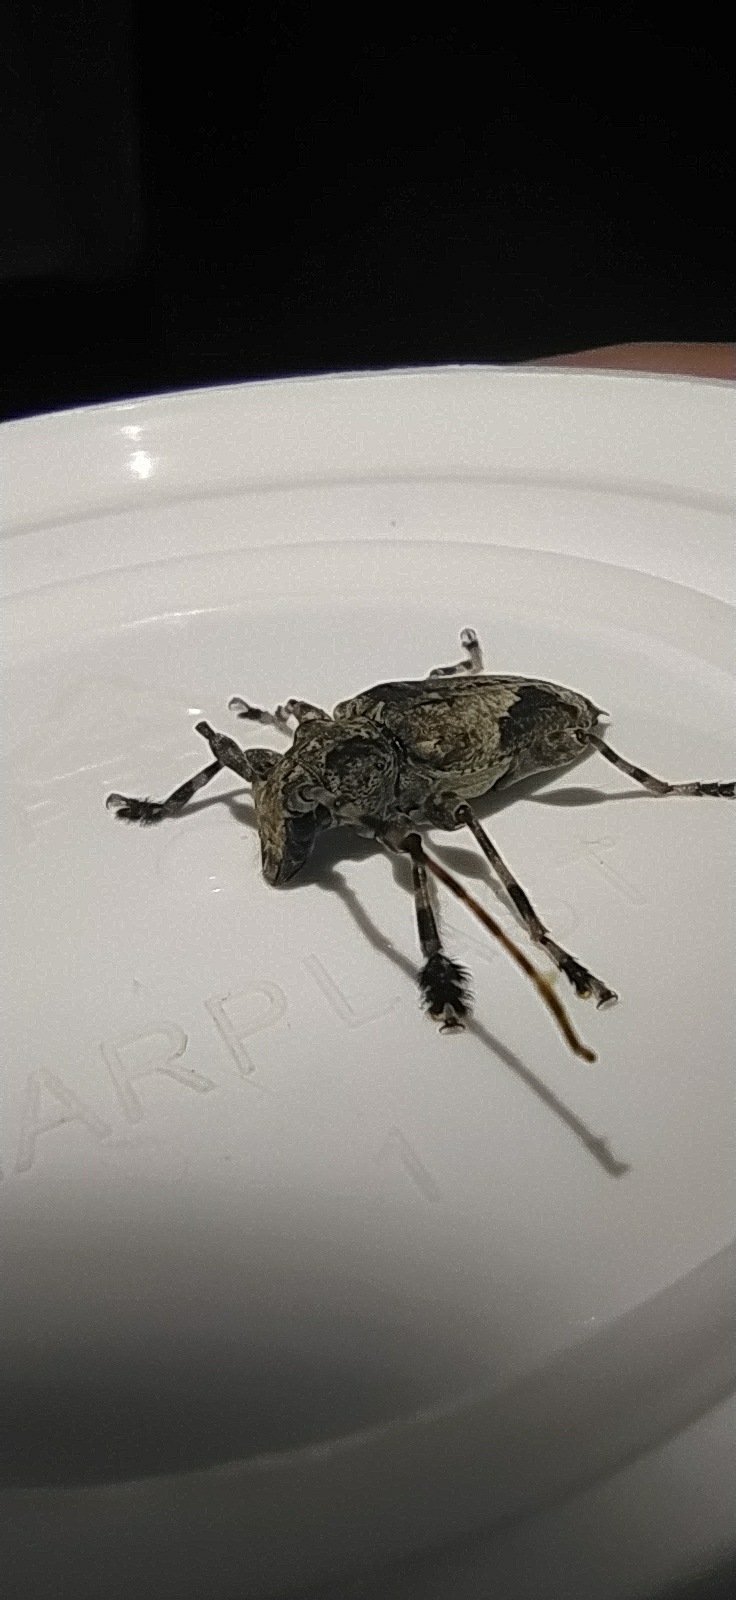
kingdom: Animalia
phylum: Arthropoda
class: Insecta
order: Coleoptera
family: Cerambycidae
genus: Psapharochrus
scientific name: Psapharochrus jaspideus
